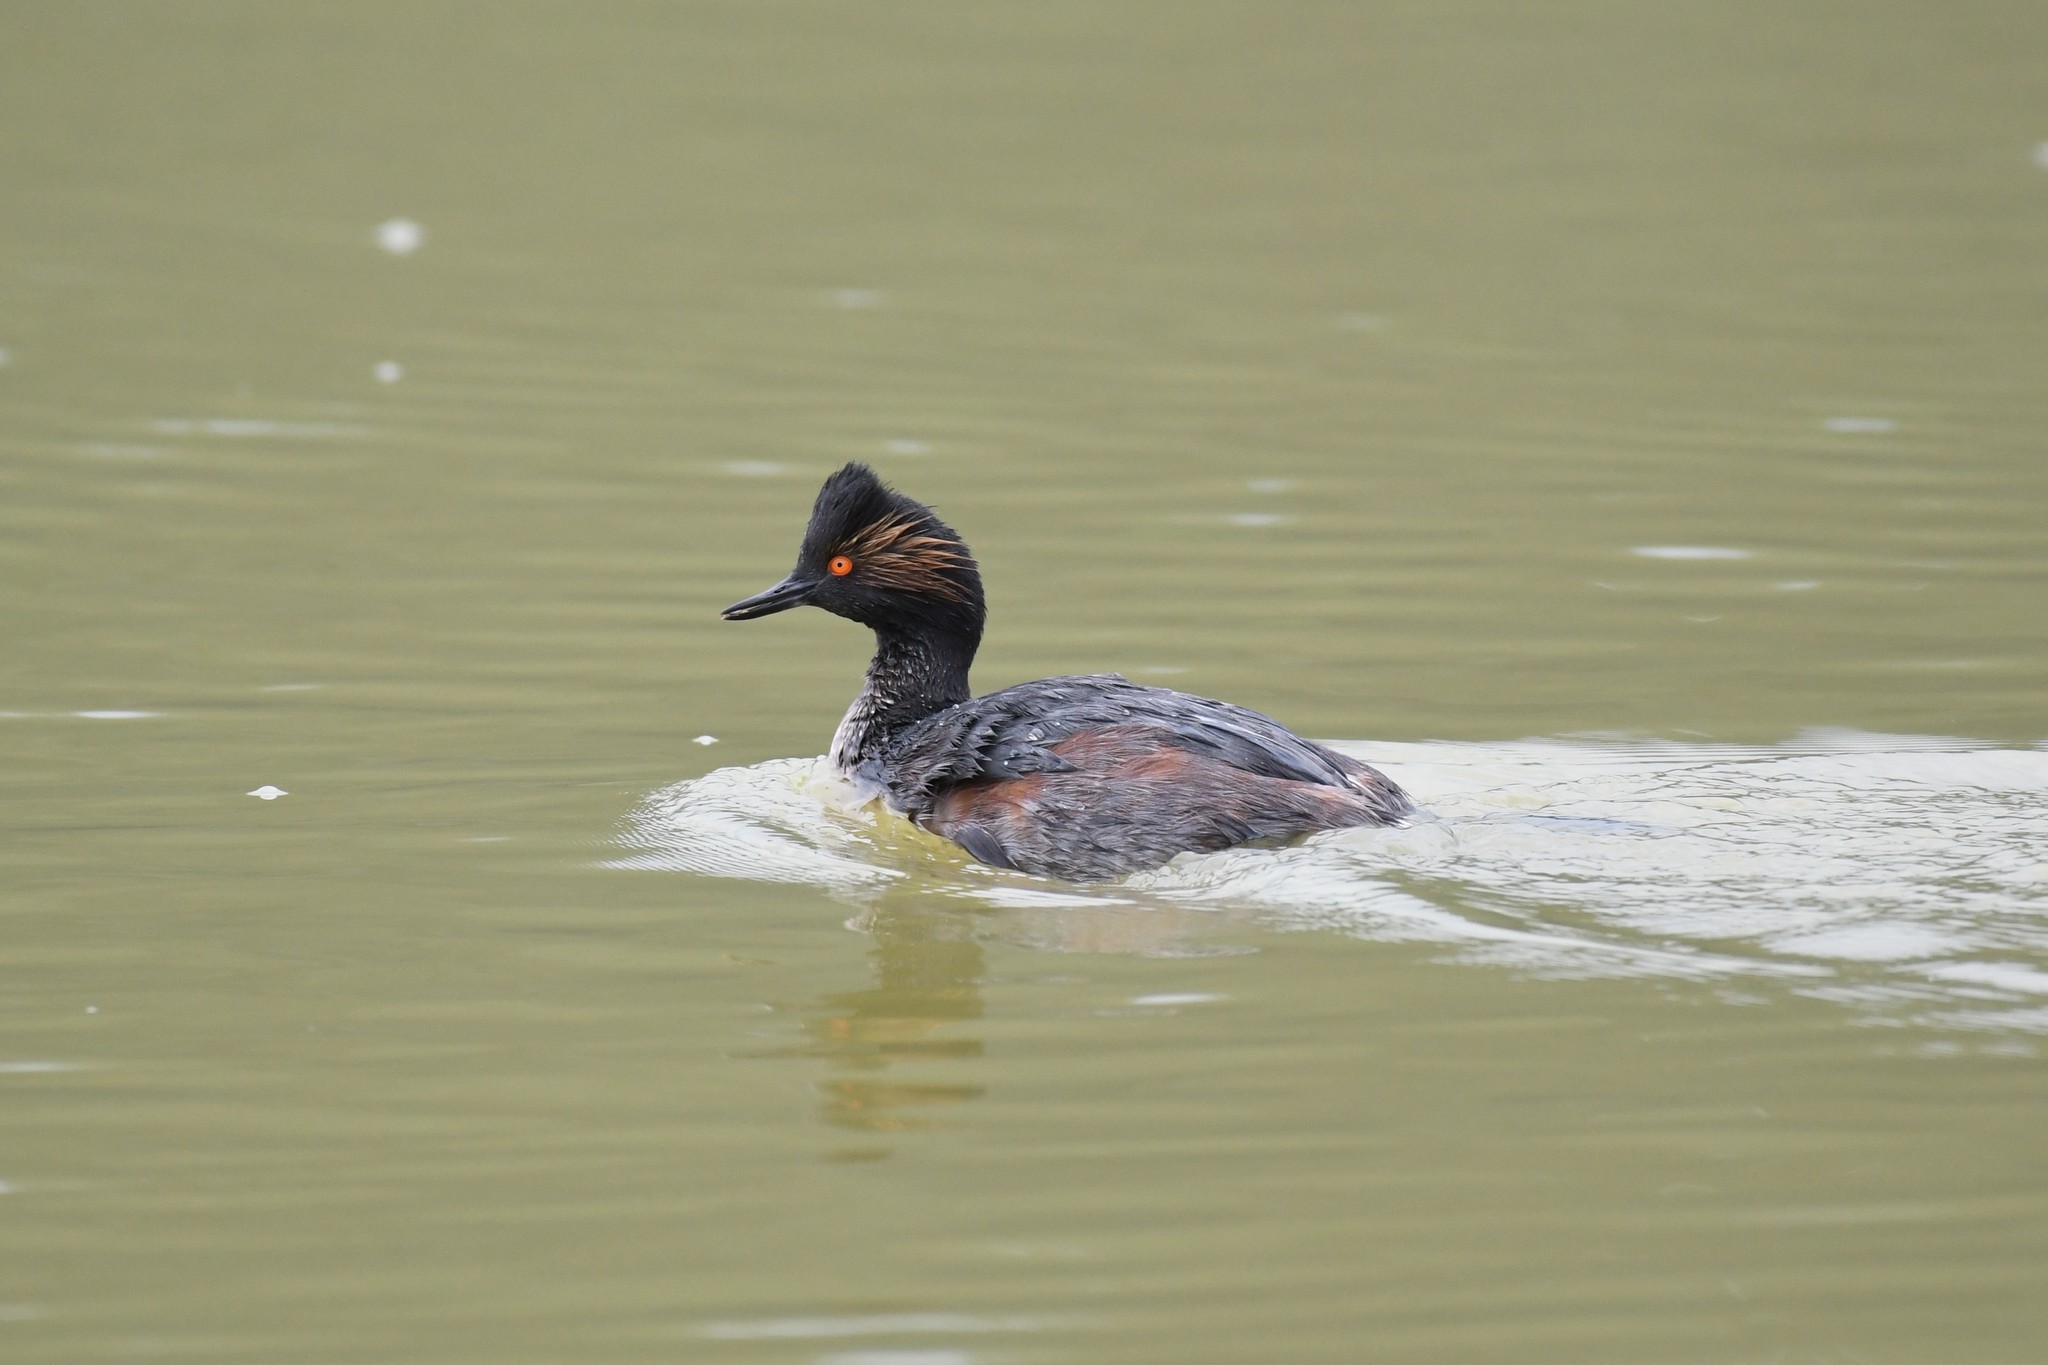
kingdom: Animalia
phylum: Chordata
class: Aves
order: Podicipediformes
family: Podicipedidae
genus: Podiceps
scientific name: Podiceps nigricollis
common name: Black-necked grebe
